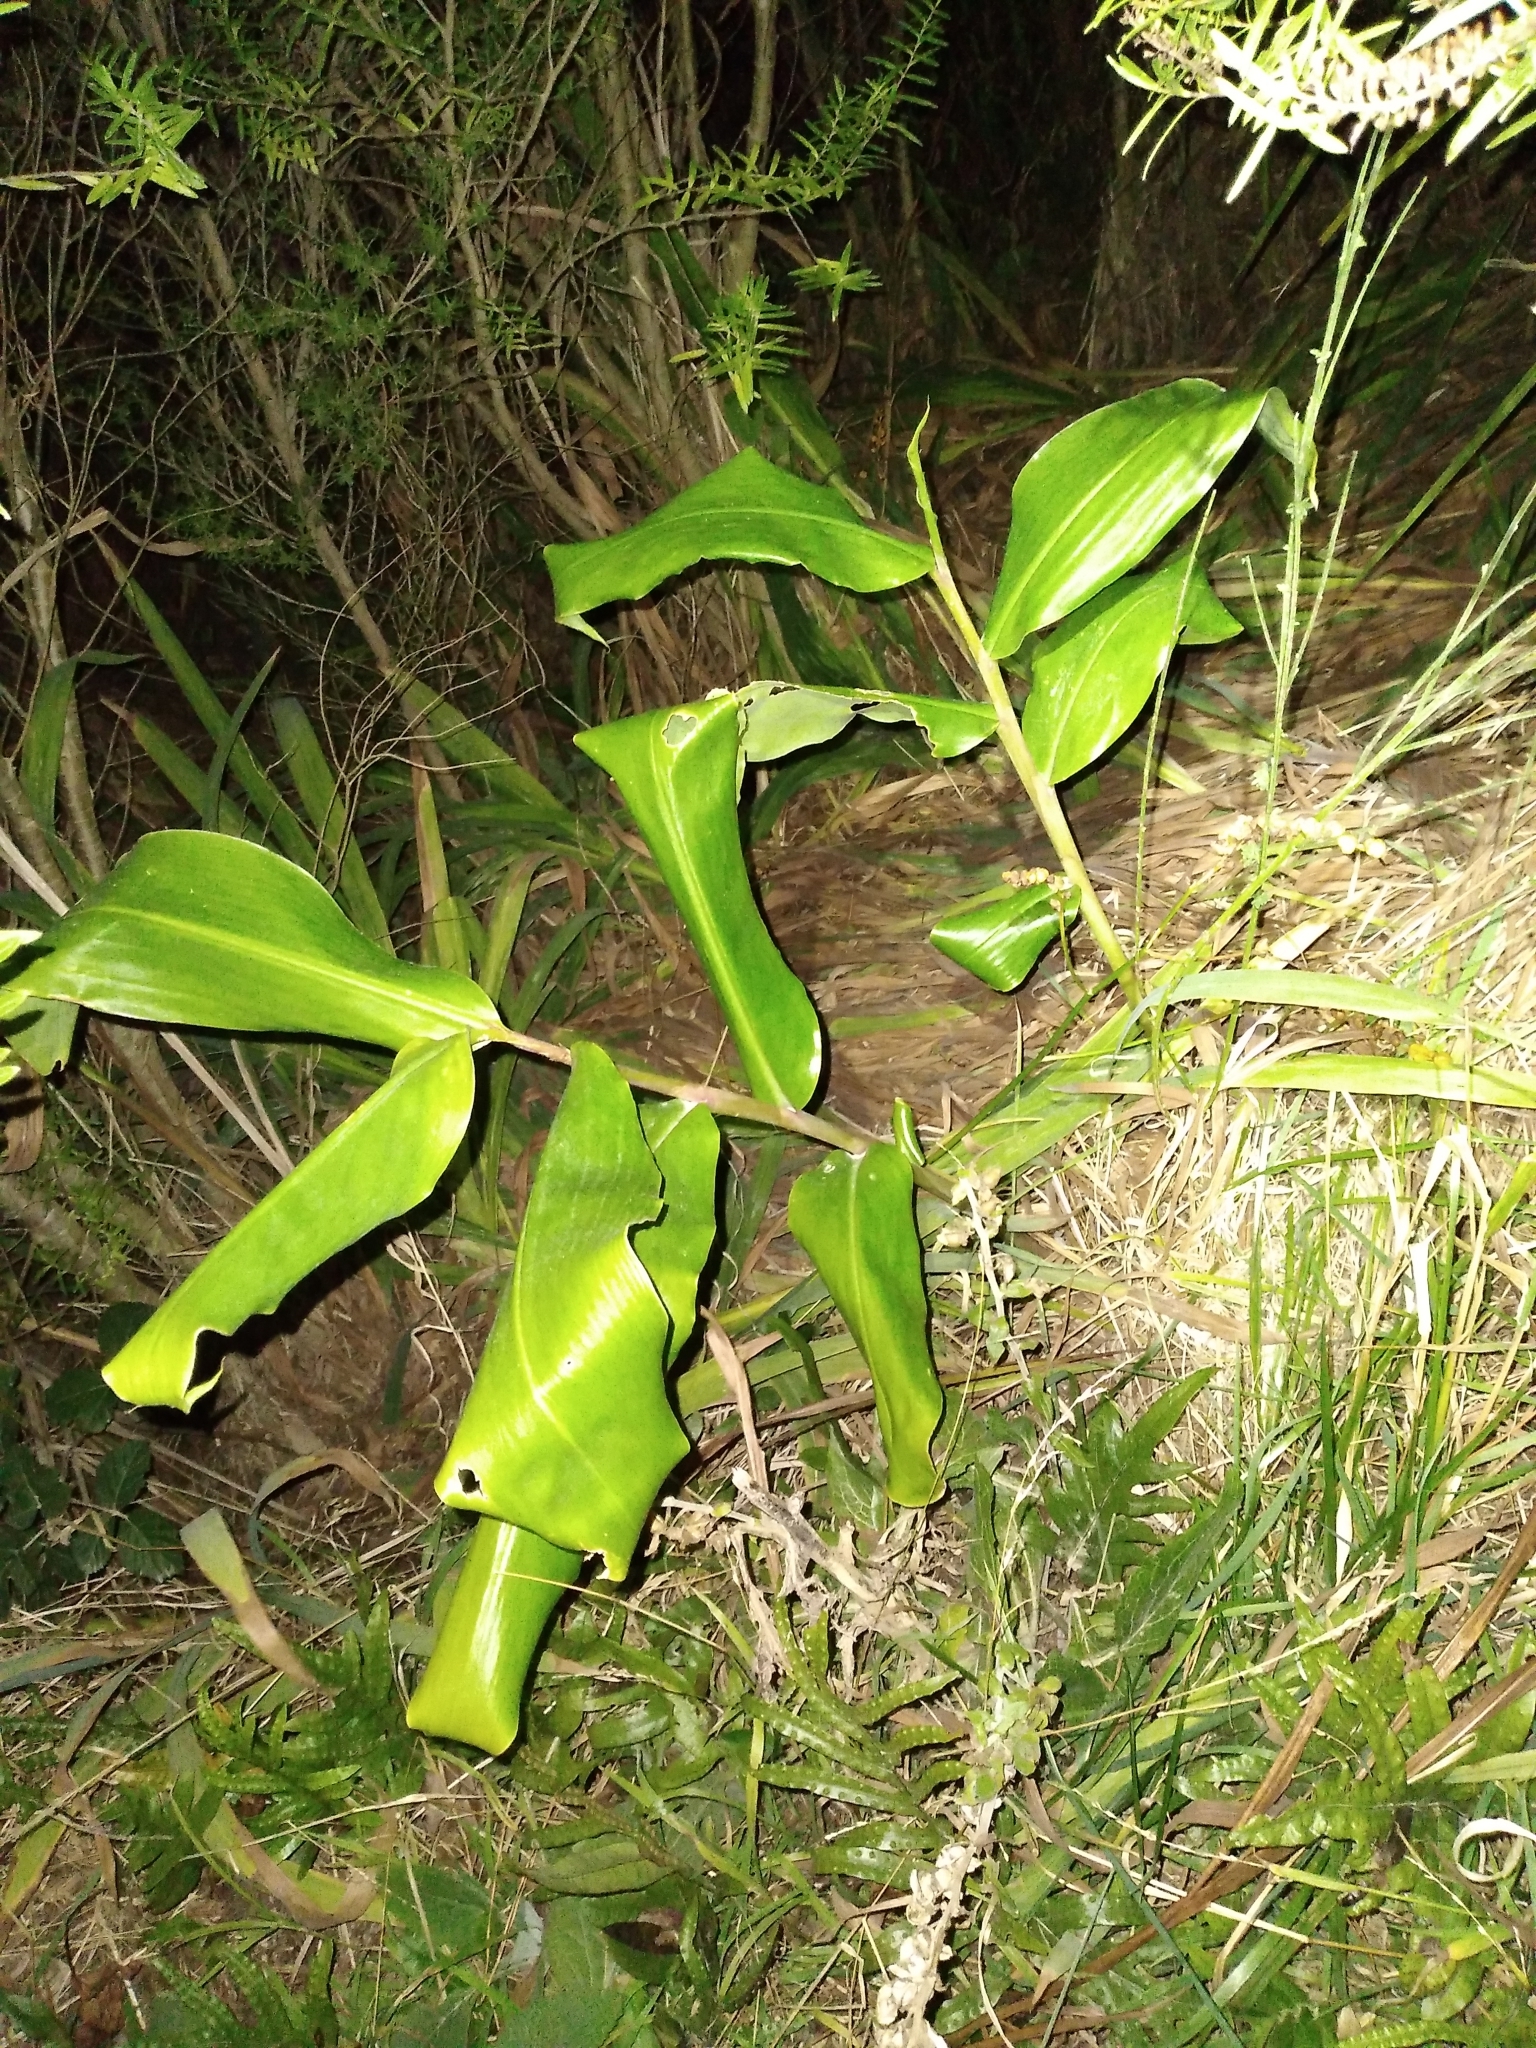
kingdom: Plantae
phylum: Tracheophyta
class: Liliopsida
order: Zingiberales
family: Zingiberaceae
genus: Hedychium
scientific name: Hedychium gardnerianum
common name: Himalayan ginger
